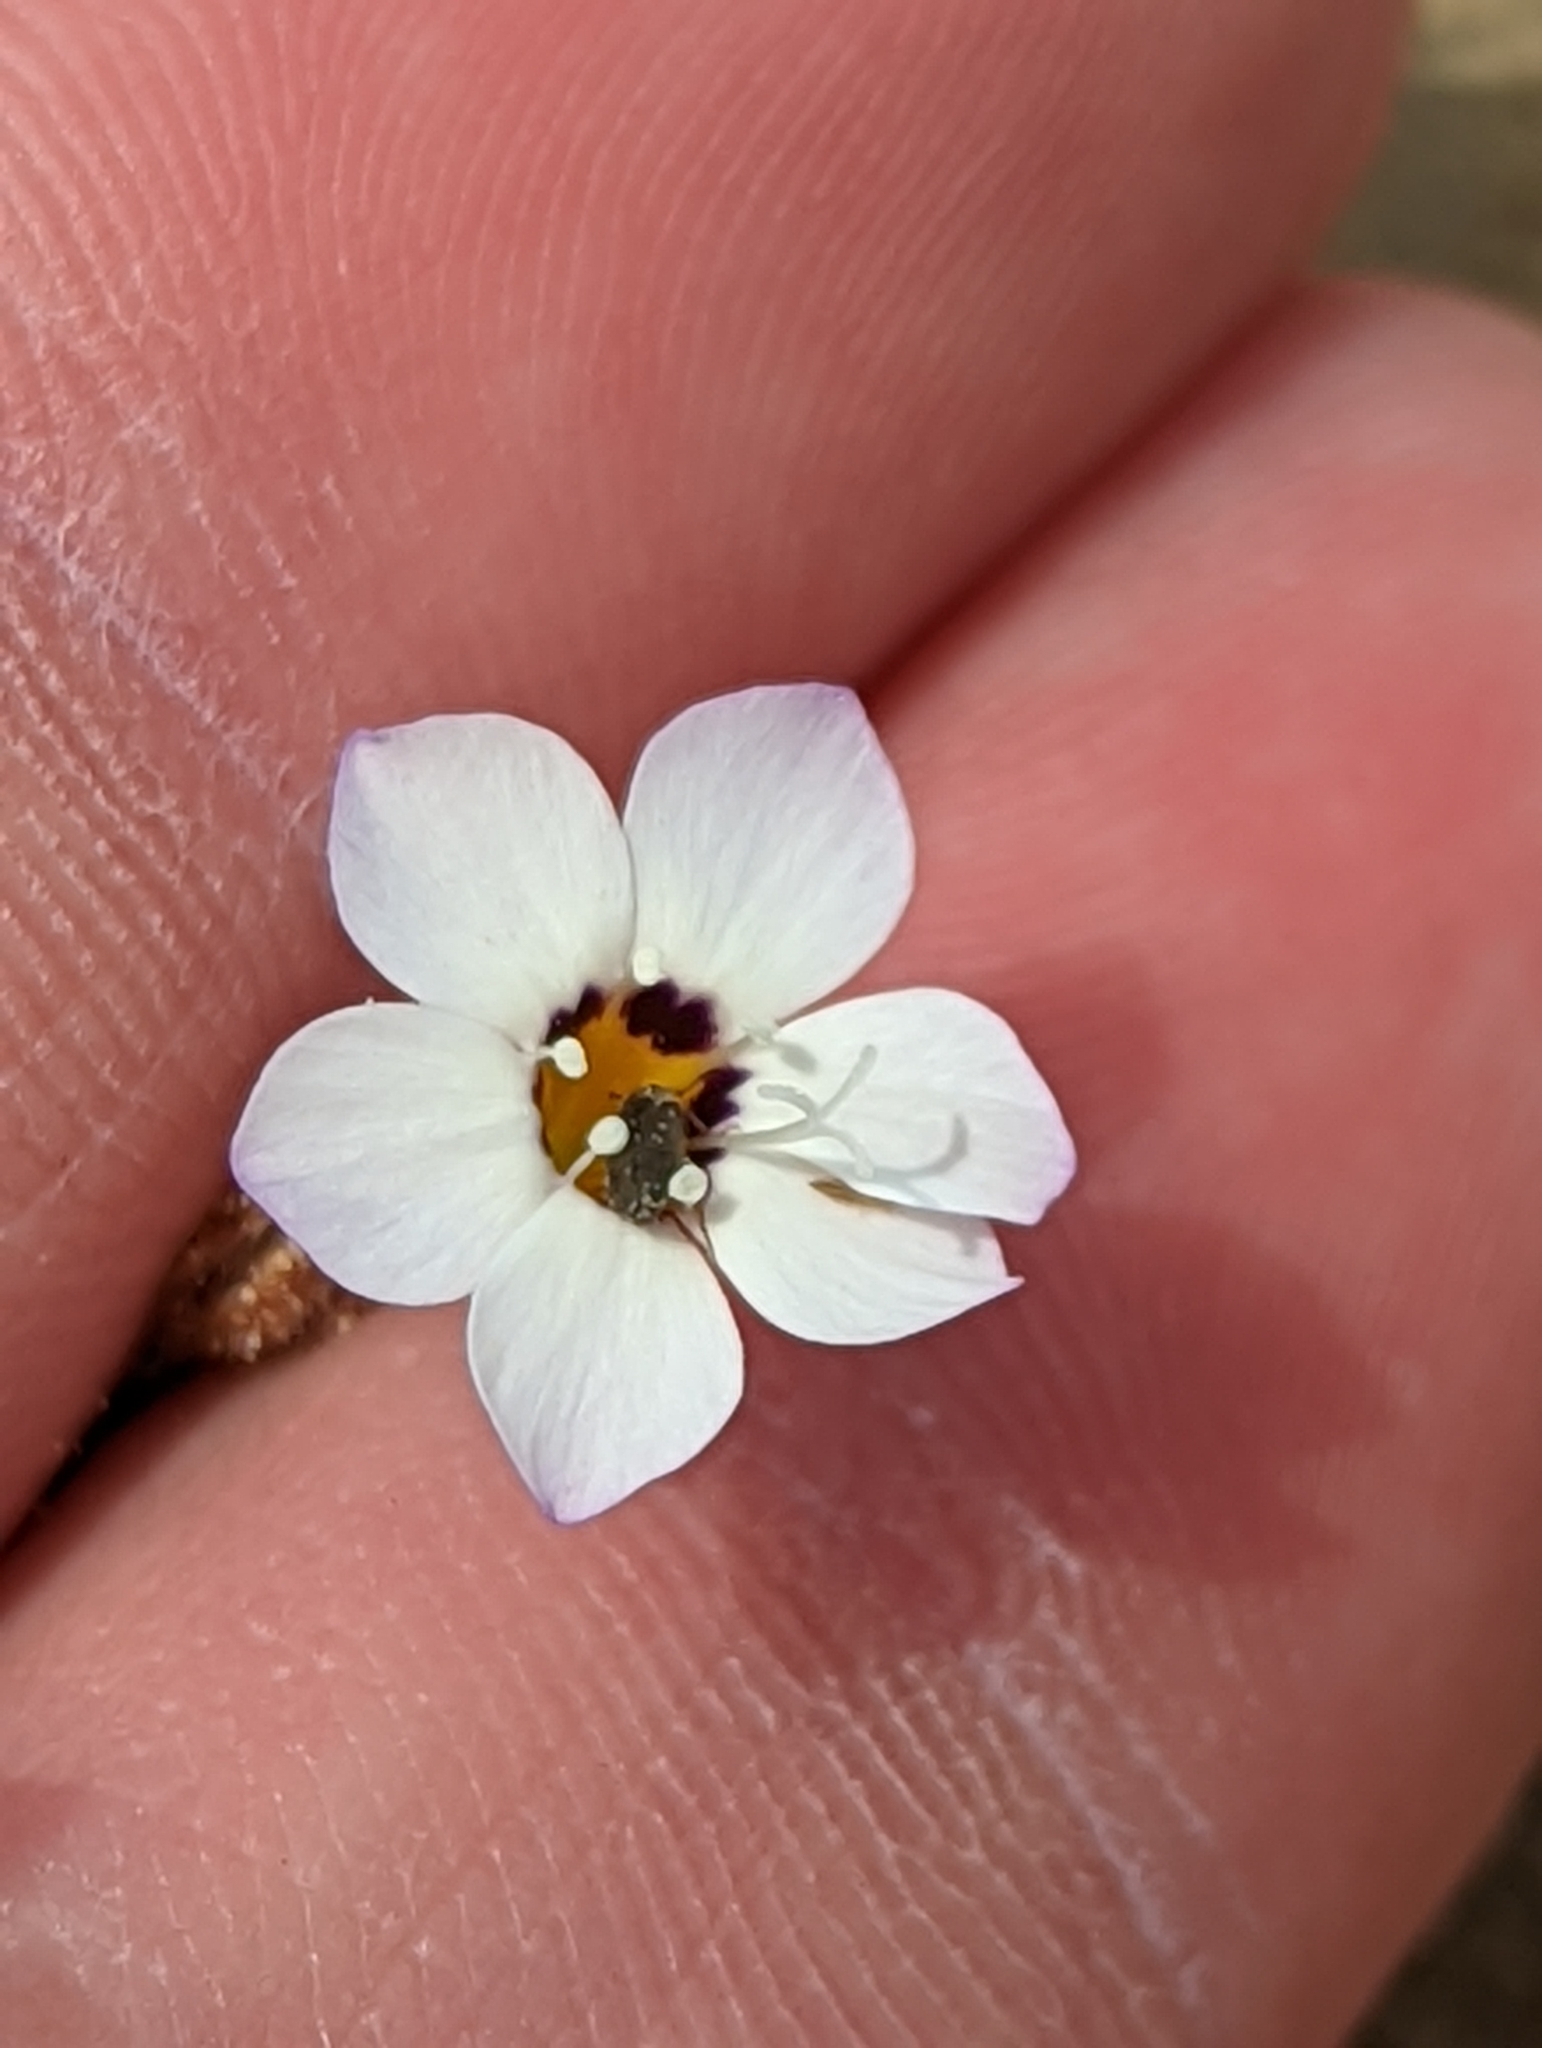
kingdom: Plantae
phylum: Tracheophyta
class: Magnoliopsida
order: Ericales
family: Polemoniaceae
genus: Gilia
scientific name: Gilia tricolor
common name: Bird's-eyes
